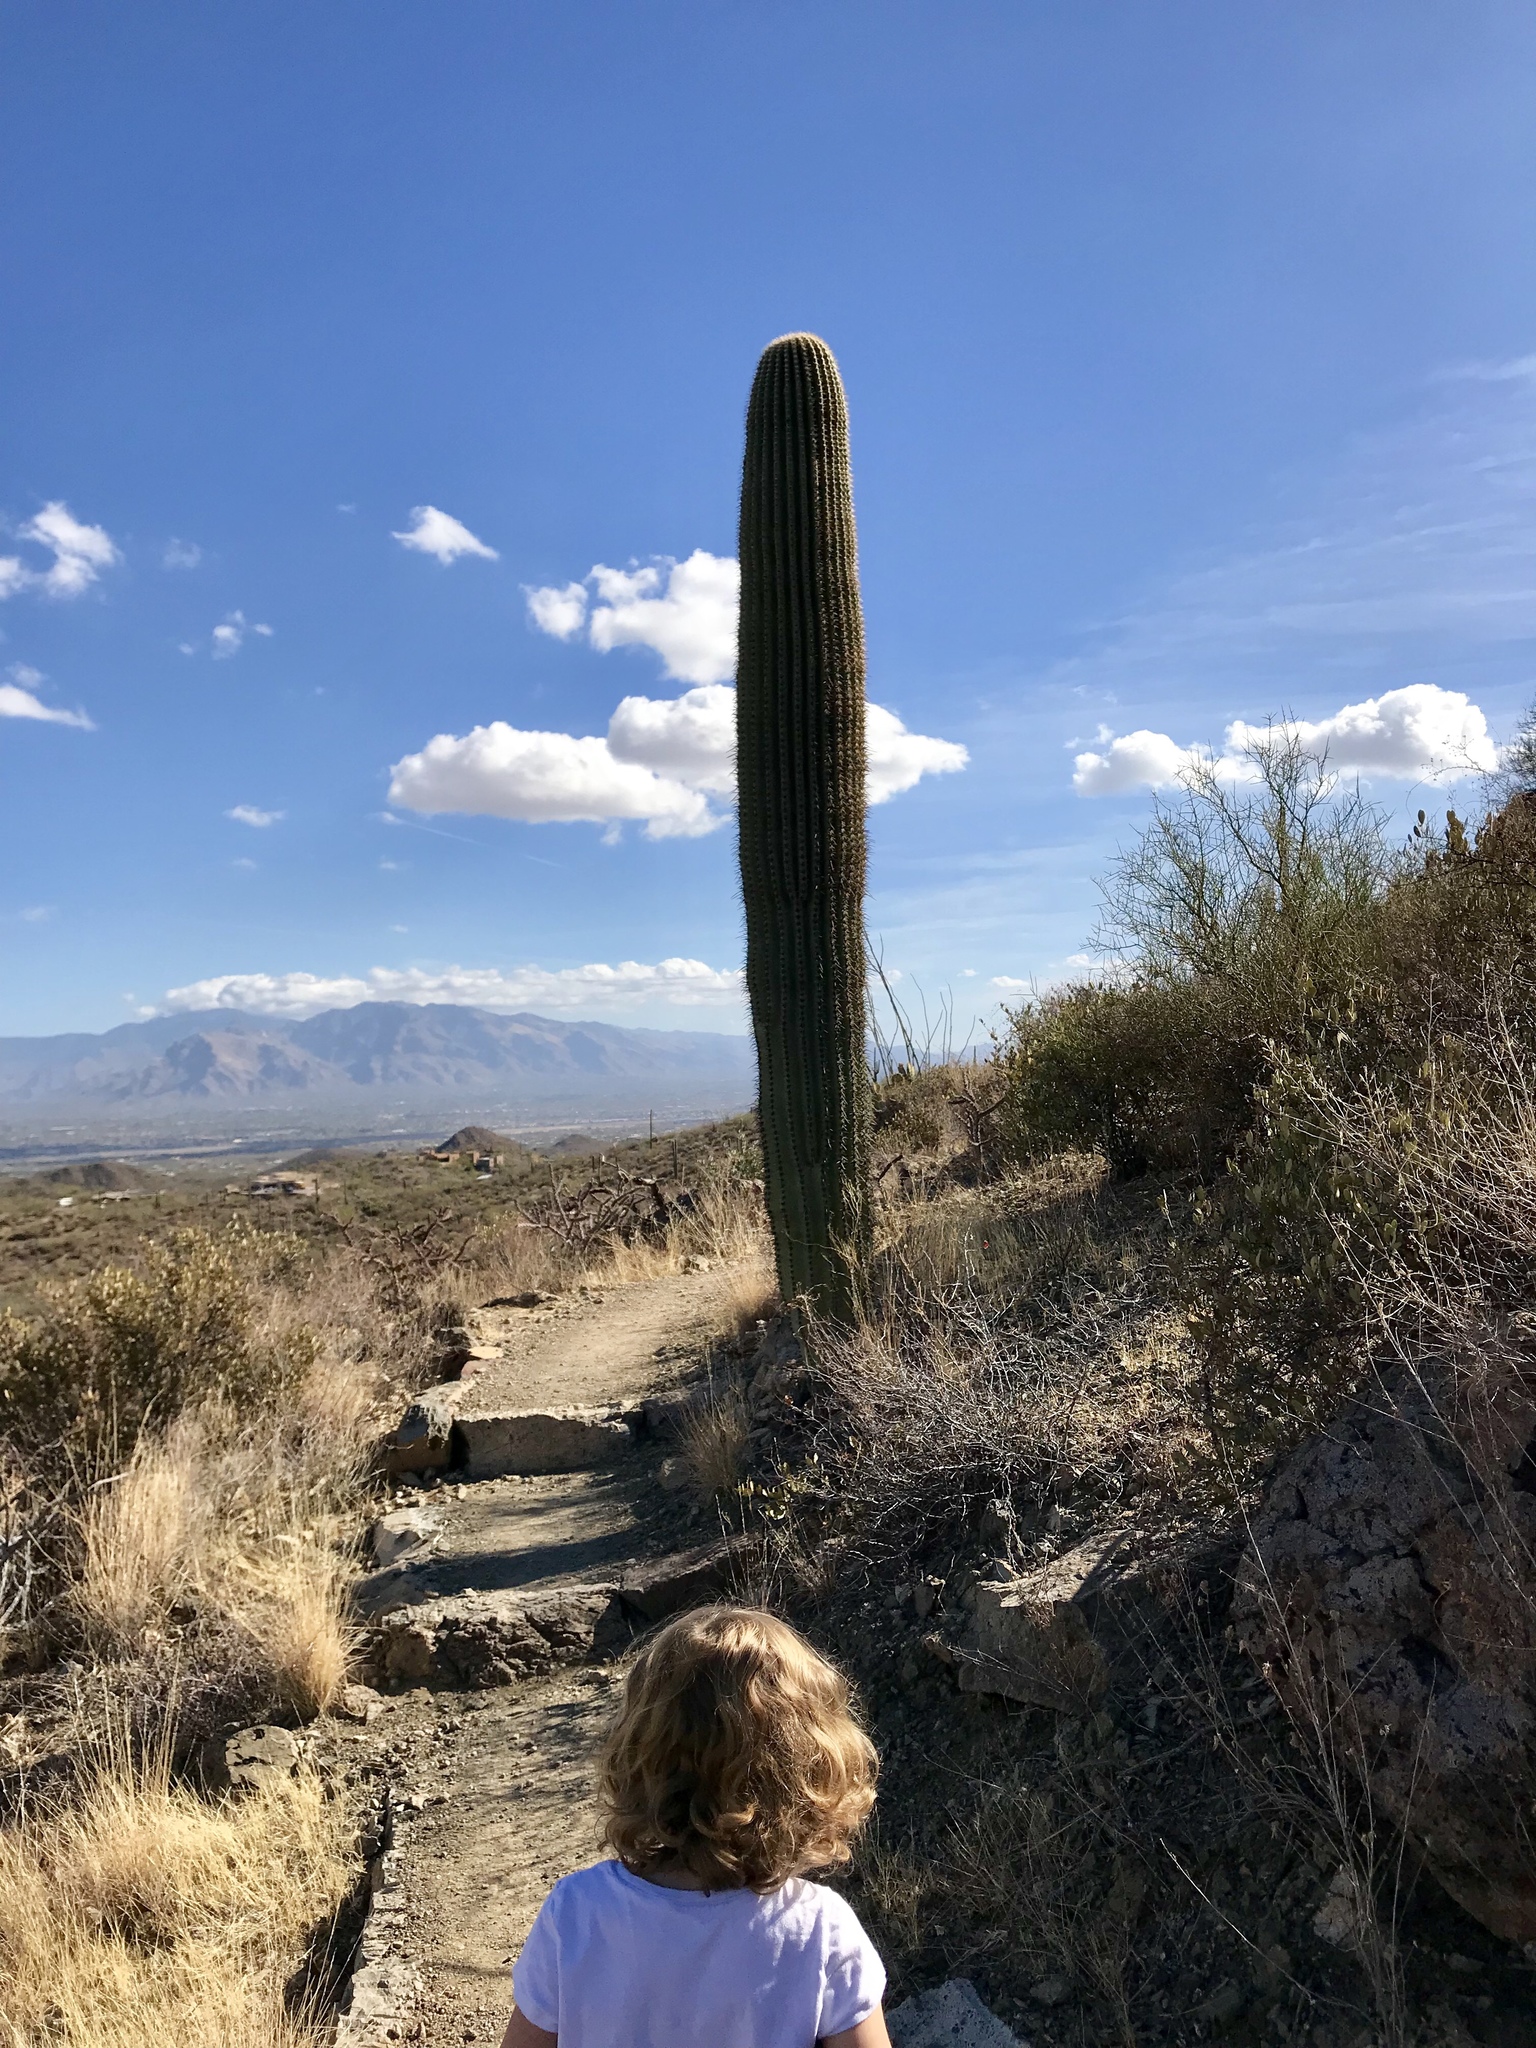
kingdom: Plantae
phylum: Tracheophyta
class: Magnoliopsida
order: Caryophyllales
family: Cactaceae
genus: Carnegiea
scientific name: Carnegiea gigantea
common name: Saguaro
